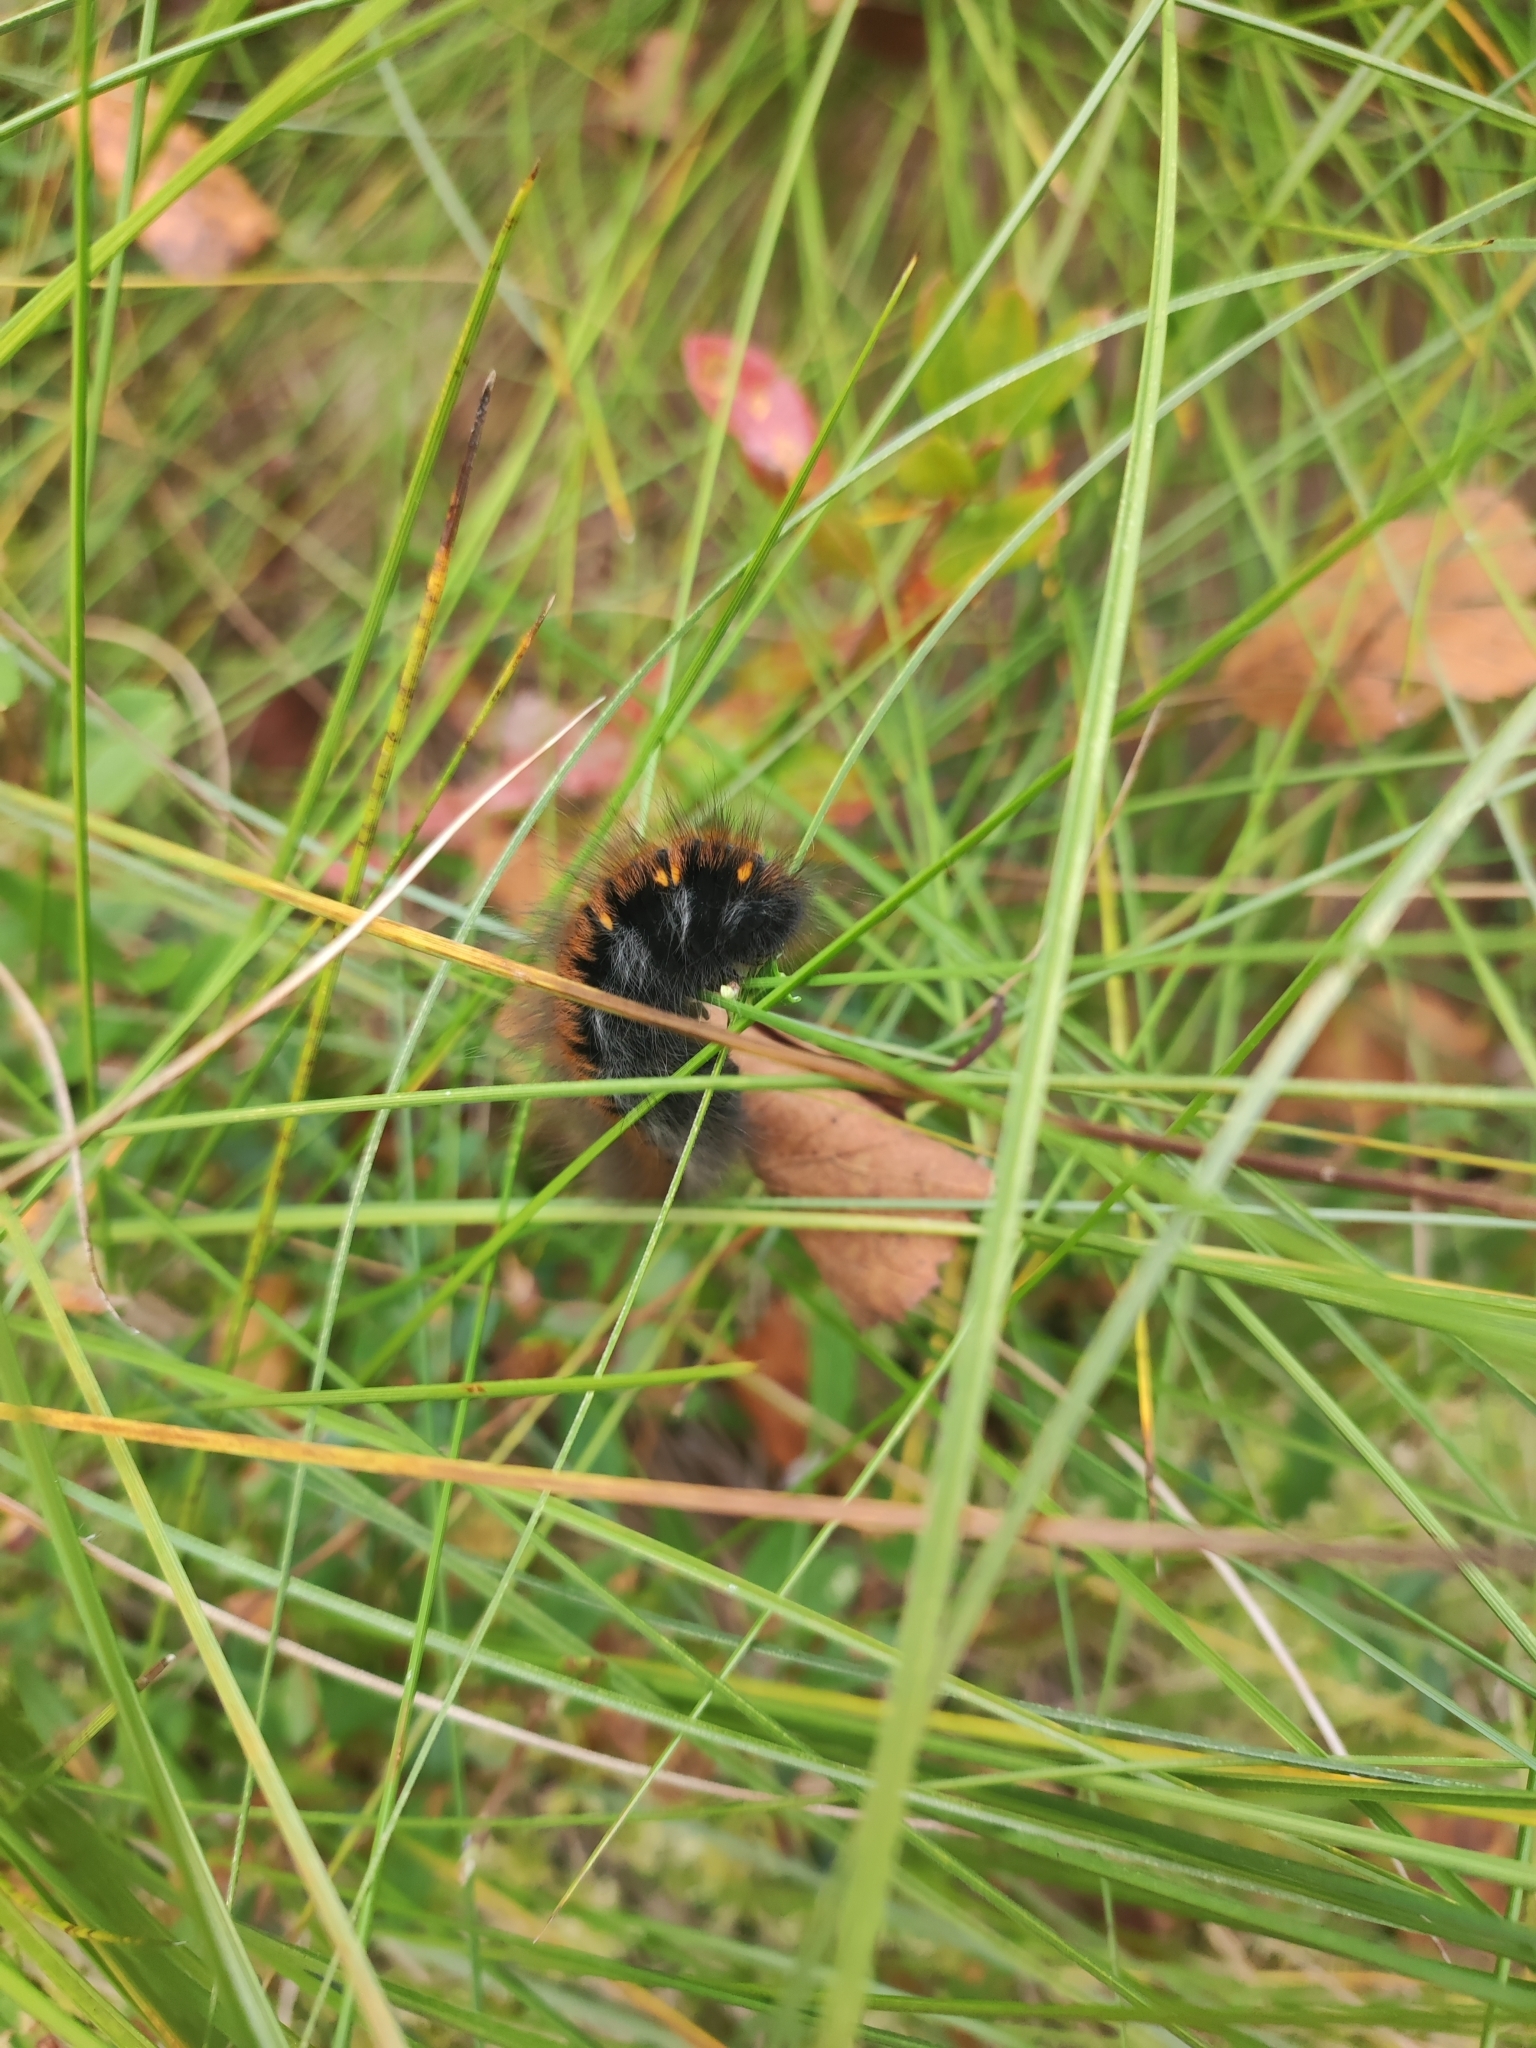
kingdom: Animalia
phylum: Arthropoda
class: Insecta
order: Lepidoptera
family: Lasiocampidae
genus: Macrothylacia
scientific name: Macrothylacia rubi
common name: Fox moth
